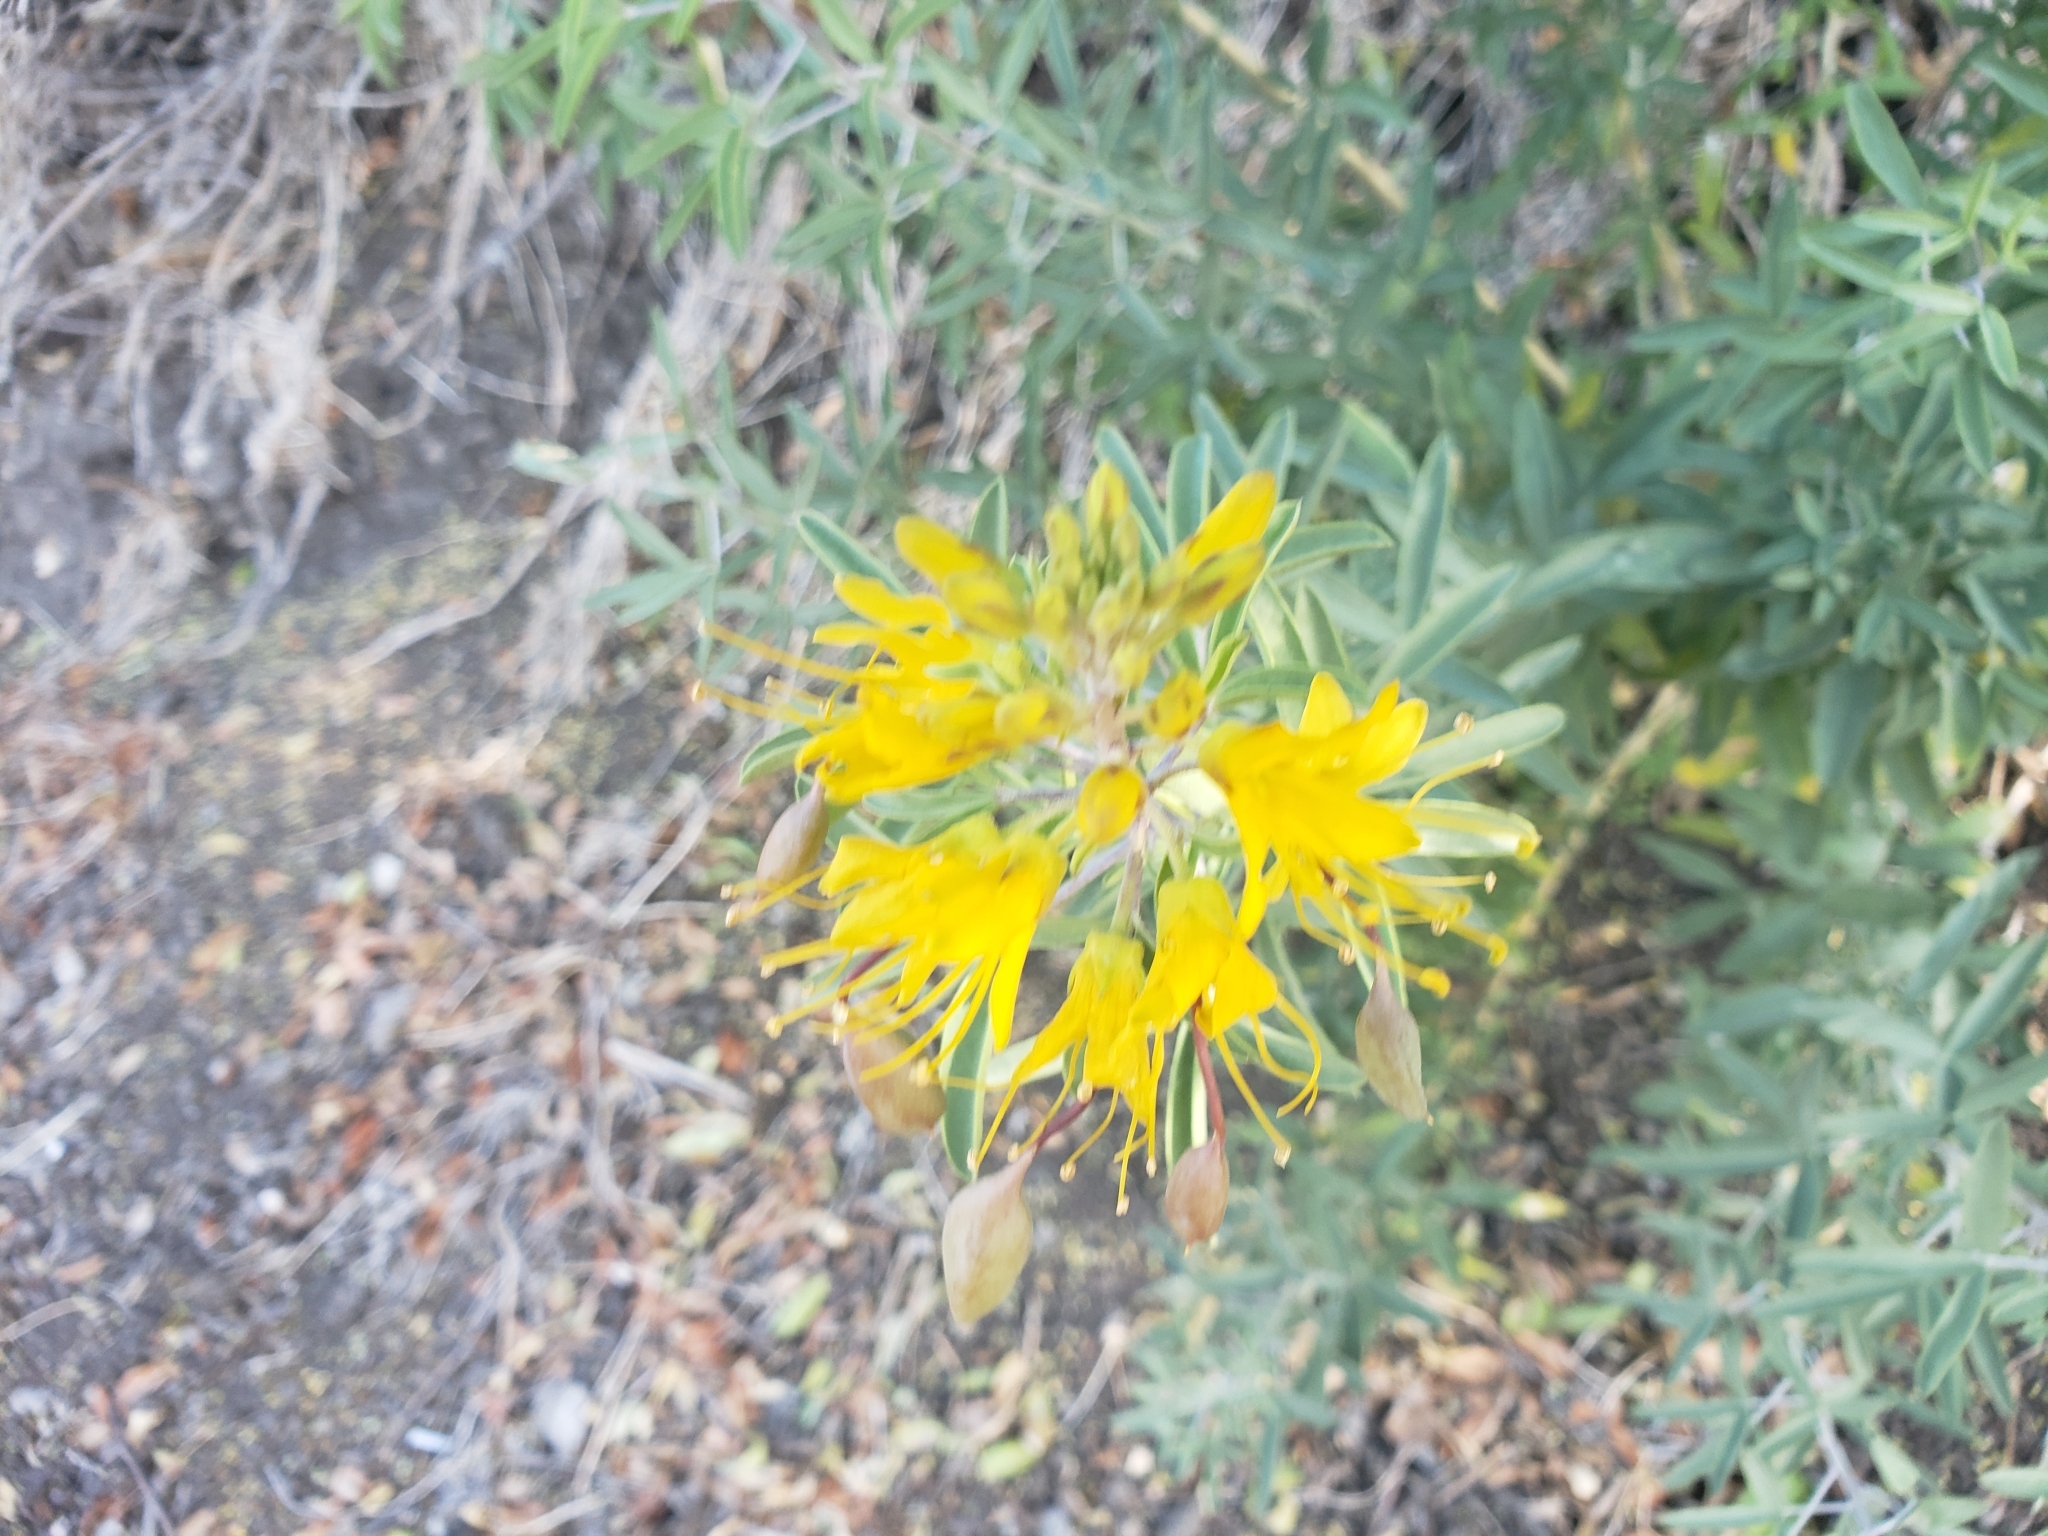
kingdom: Plantae
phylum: Tracheophyta
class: Magnoliopsida
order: Brassicales
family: Cleomaceae
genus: Cleomella
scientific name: Cleomella arborea
